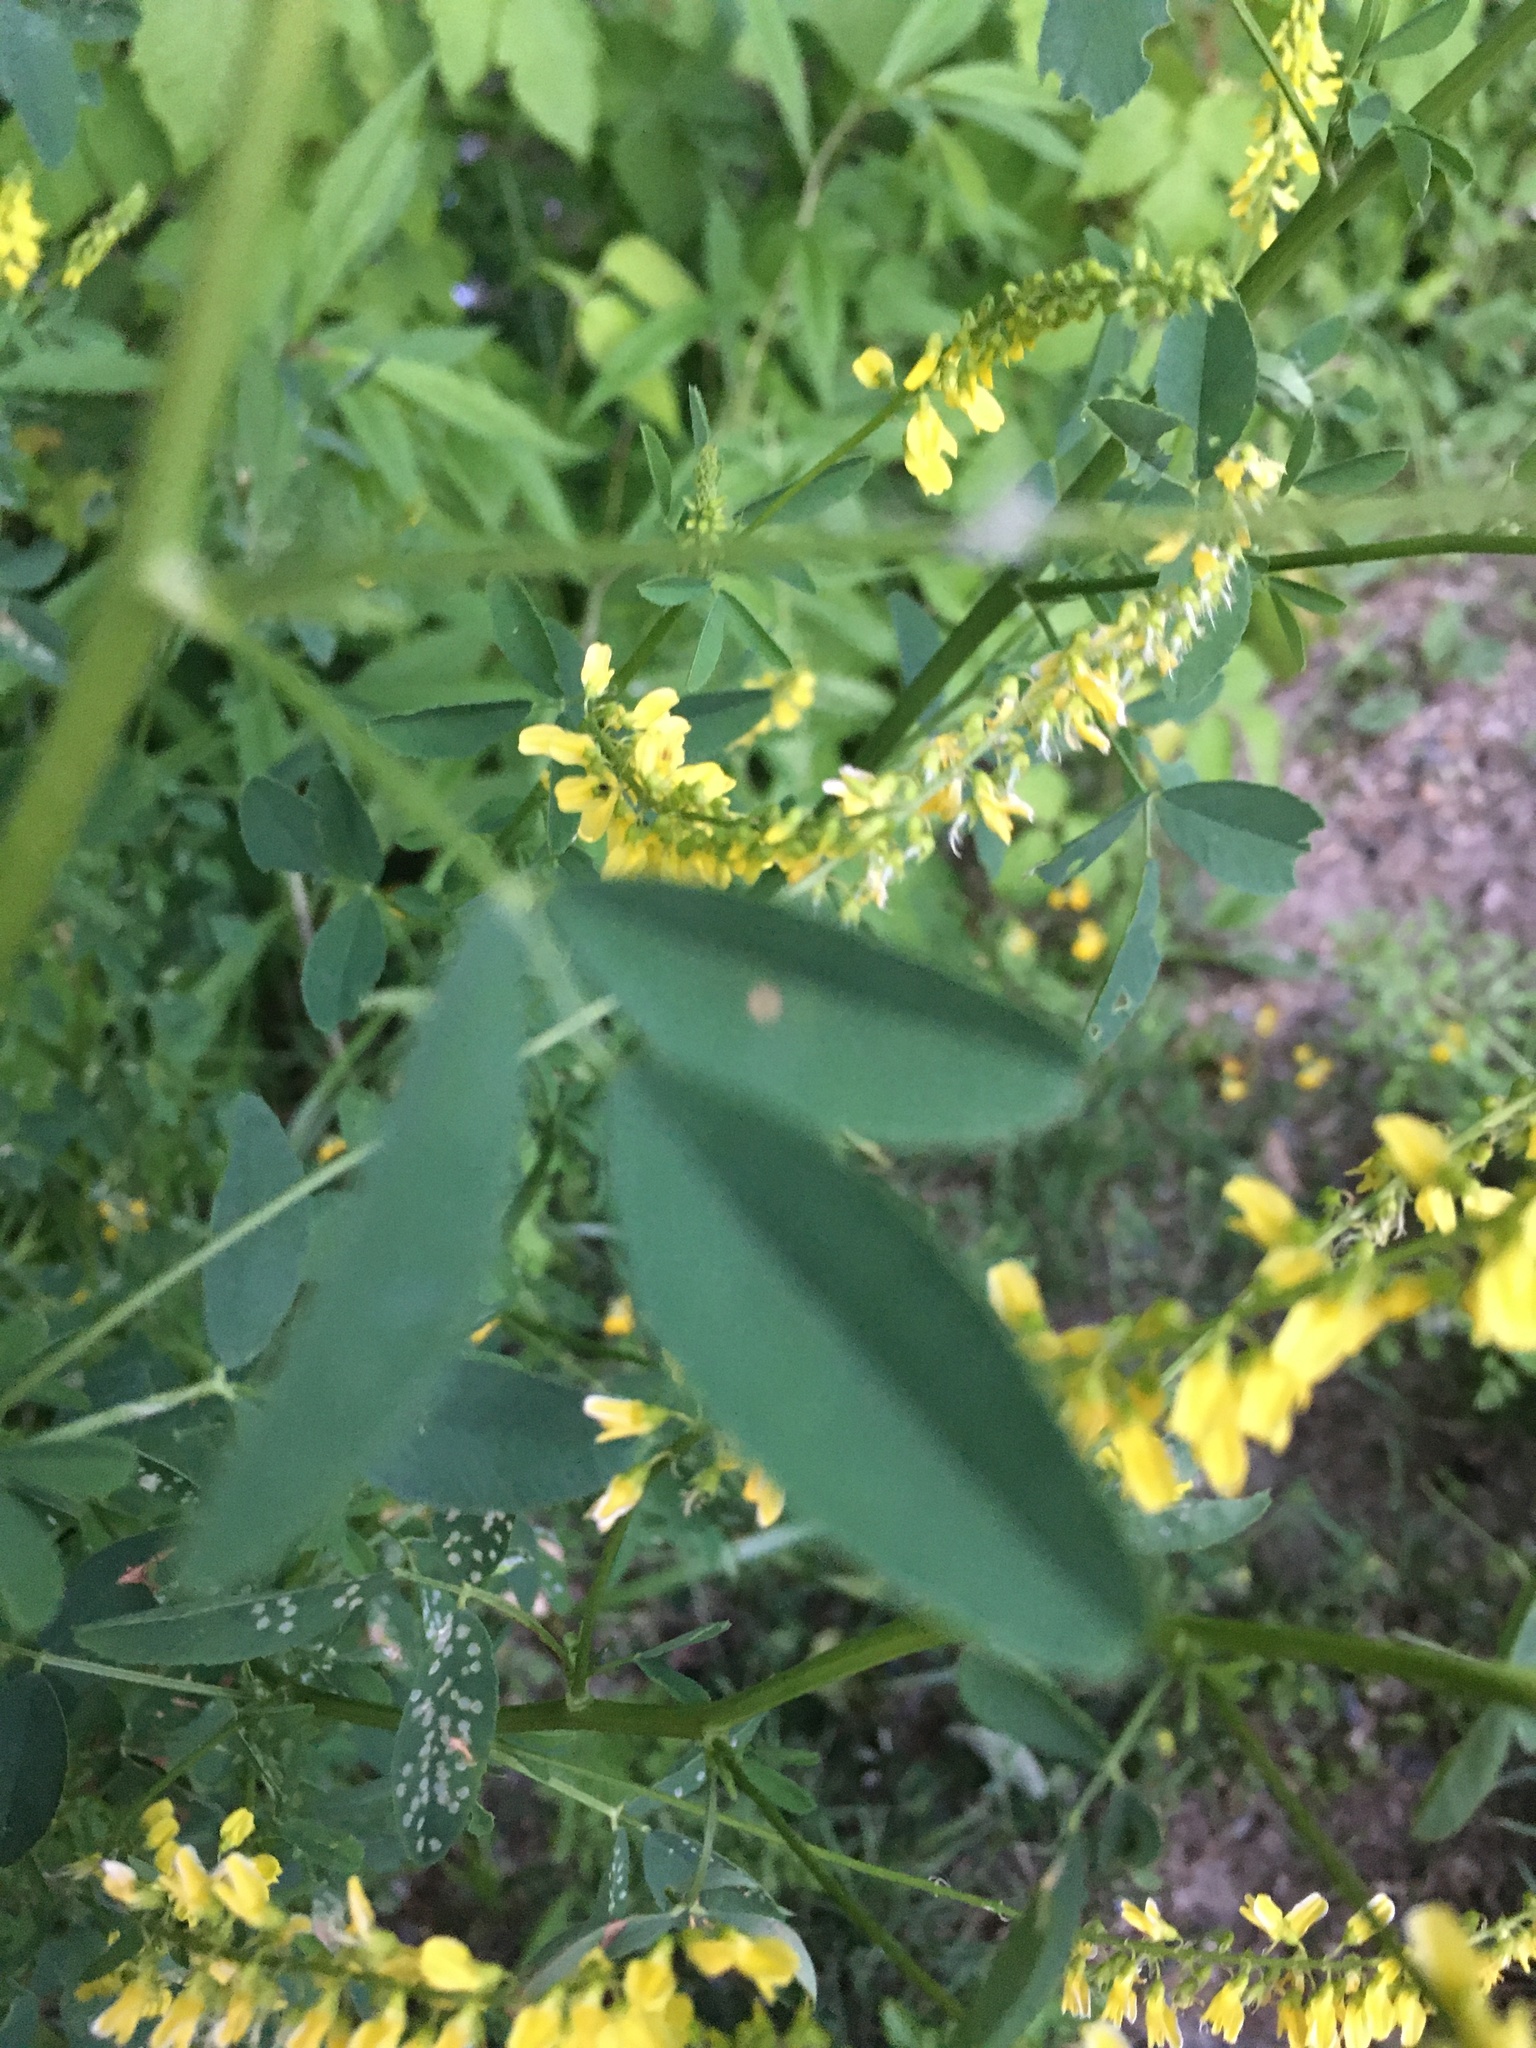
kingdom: Plantae
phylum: Tracheophyta
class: Magnoliopsida
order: Fabales
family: Fabaceae
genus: Melilotus
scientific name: Melilotus officinalis
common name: Sweetclover
